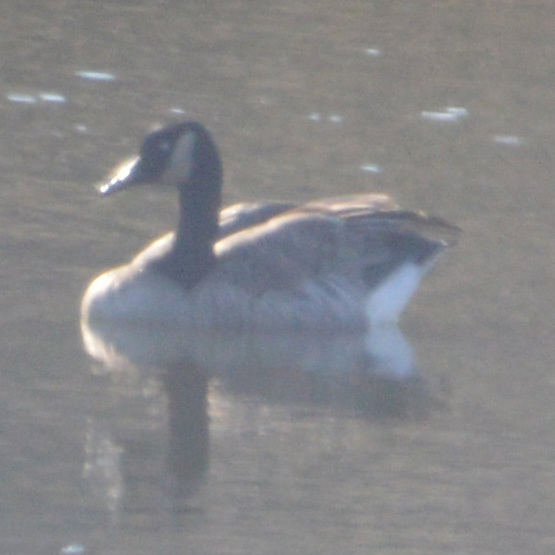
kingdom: Animalia
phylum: Chordata
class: Aves
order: Anseriformes
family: Anatidae
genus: Branta
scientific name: Branta canadensis
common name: Canada goose
